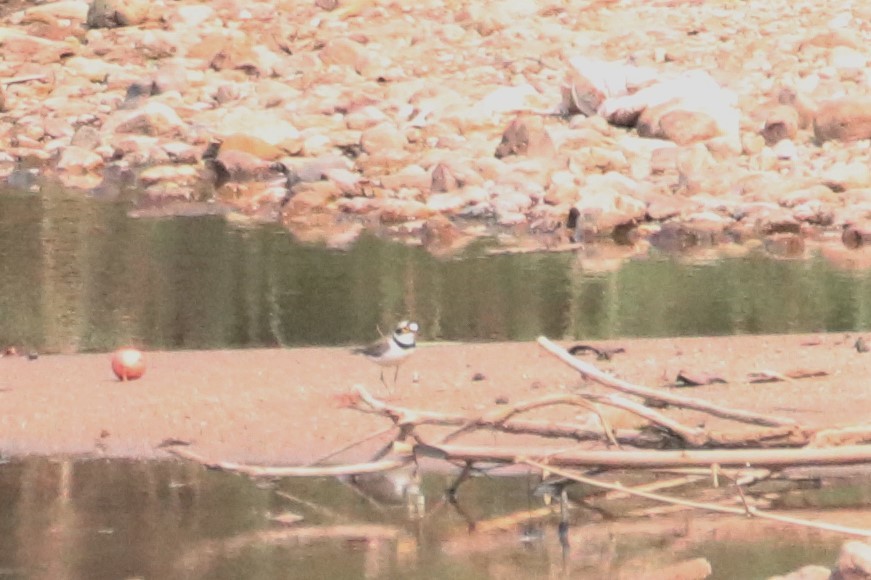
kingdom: Animalia
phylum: Chordata
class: Aves
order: Charadriiformes
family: Charadriidae
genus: Charadrius
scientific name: Charadrius dubius
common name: Little ringed plover
